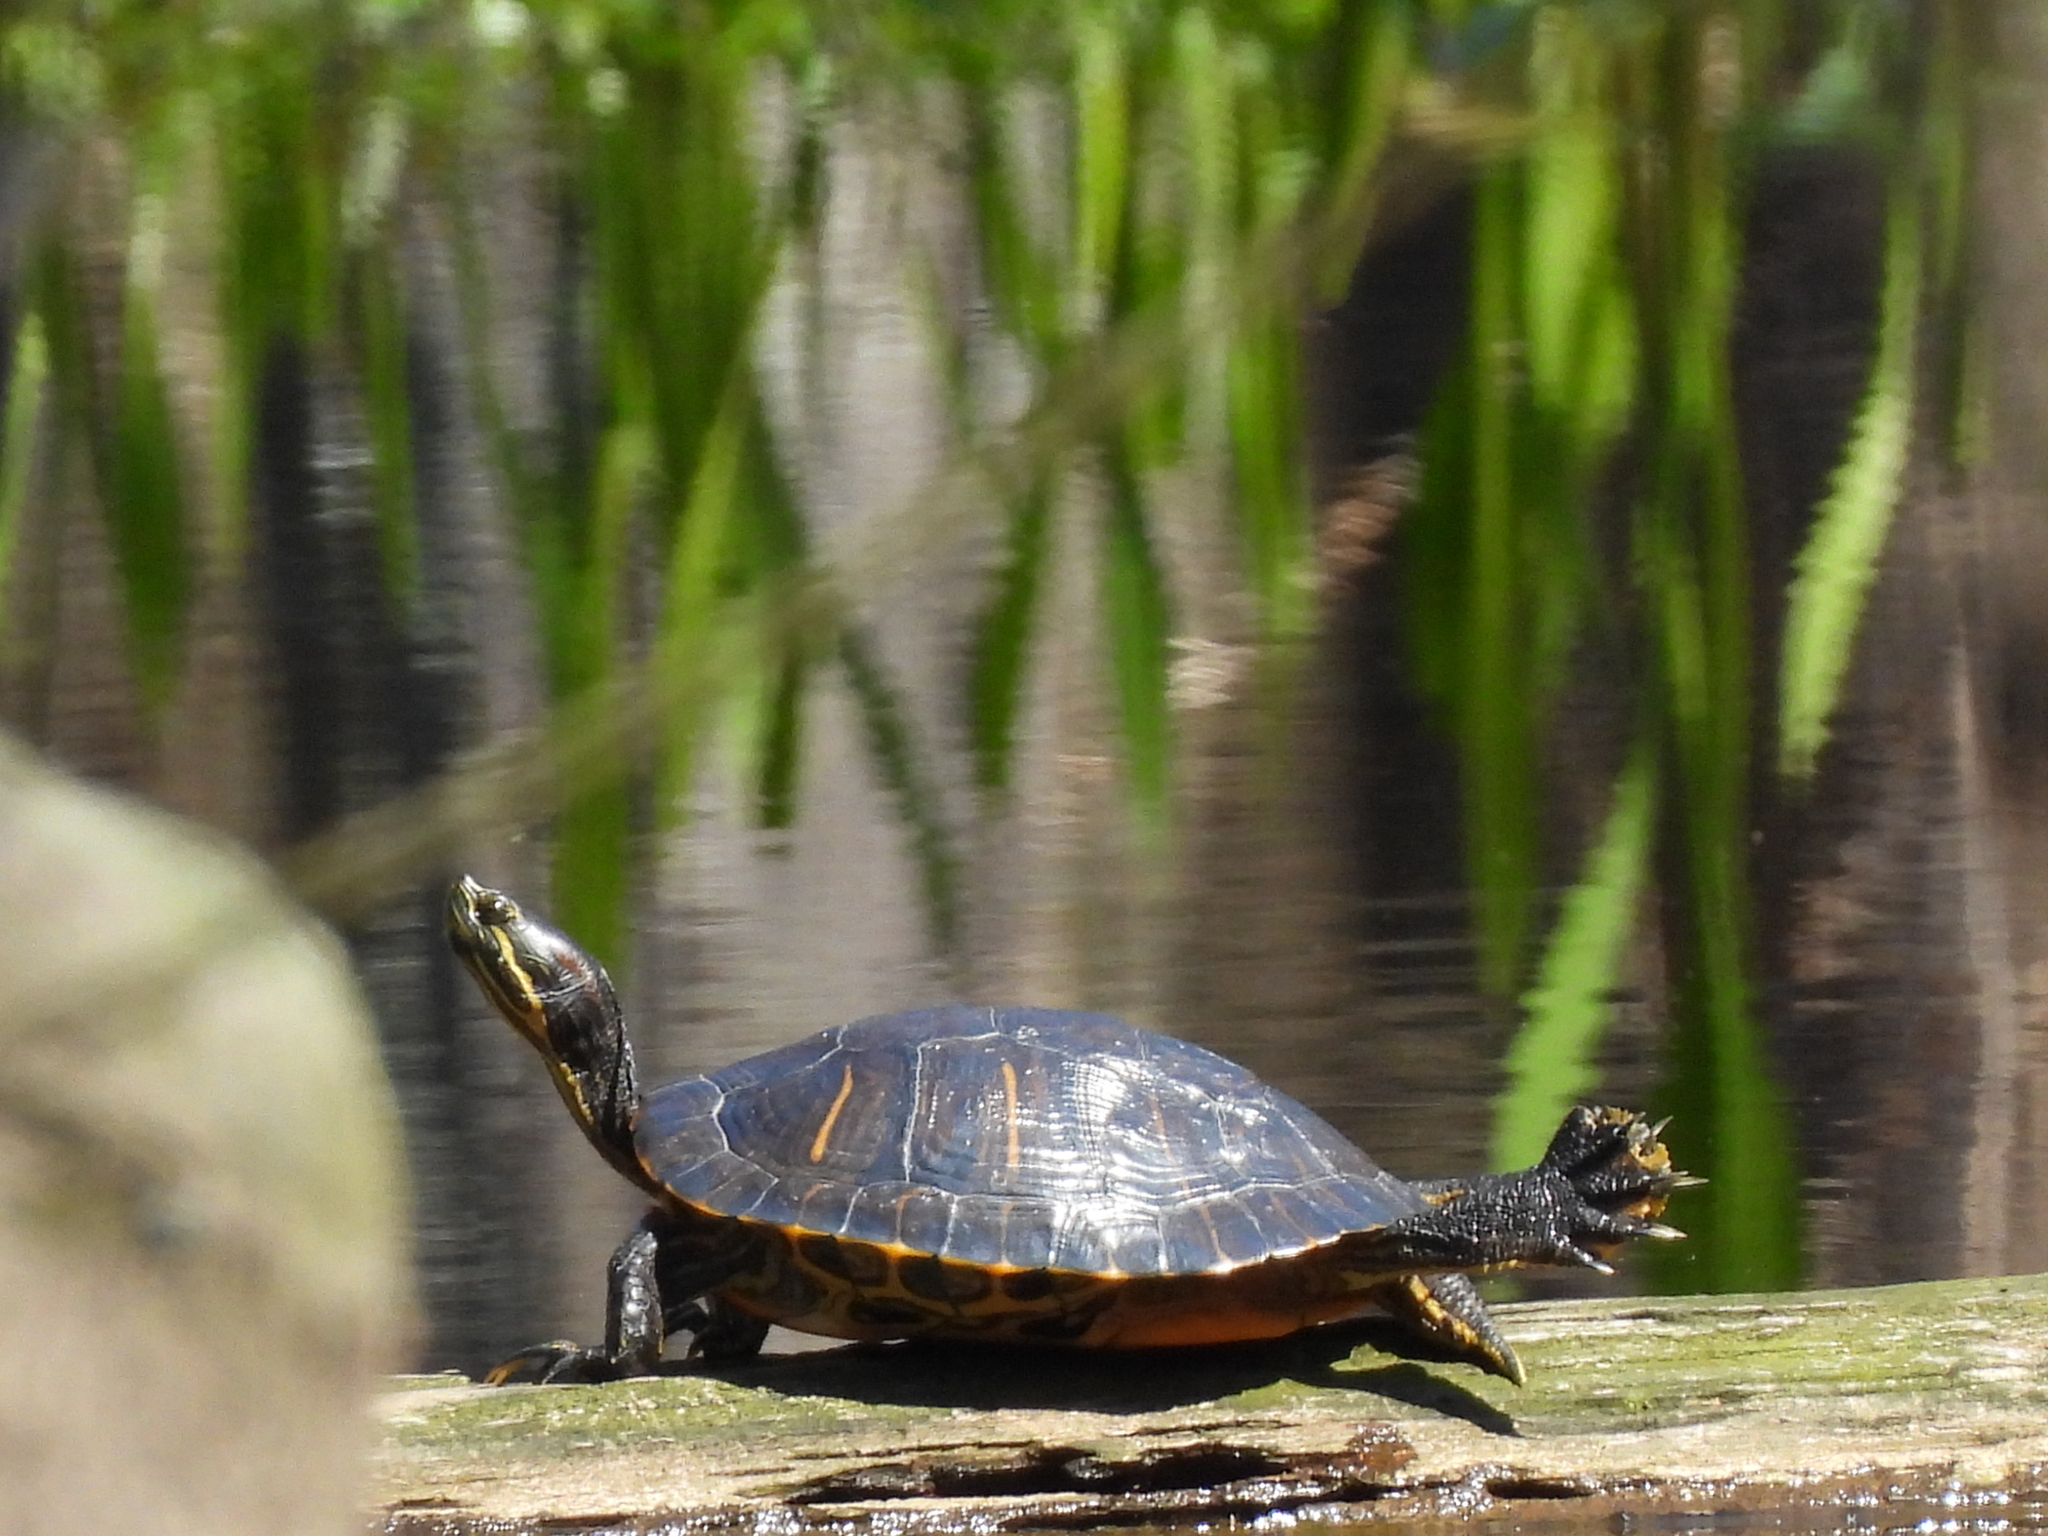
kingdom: Animalia
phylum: Chordata
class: Testudines
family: Emydidae
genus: Trachemys
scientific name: Trachemys scripta
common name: Slider
